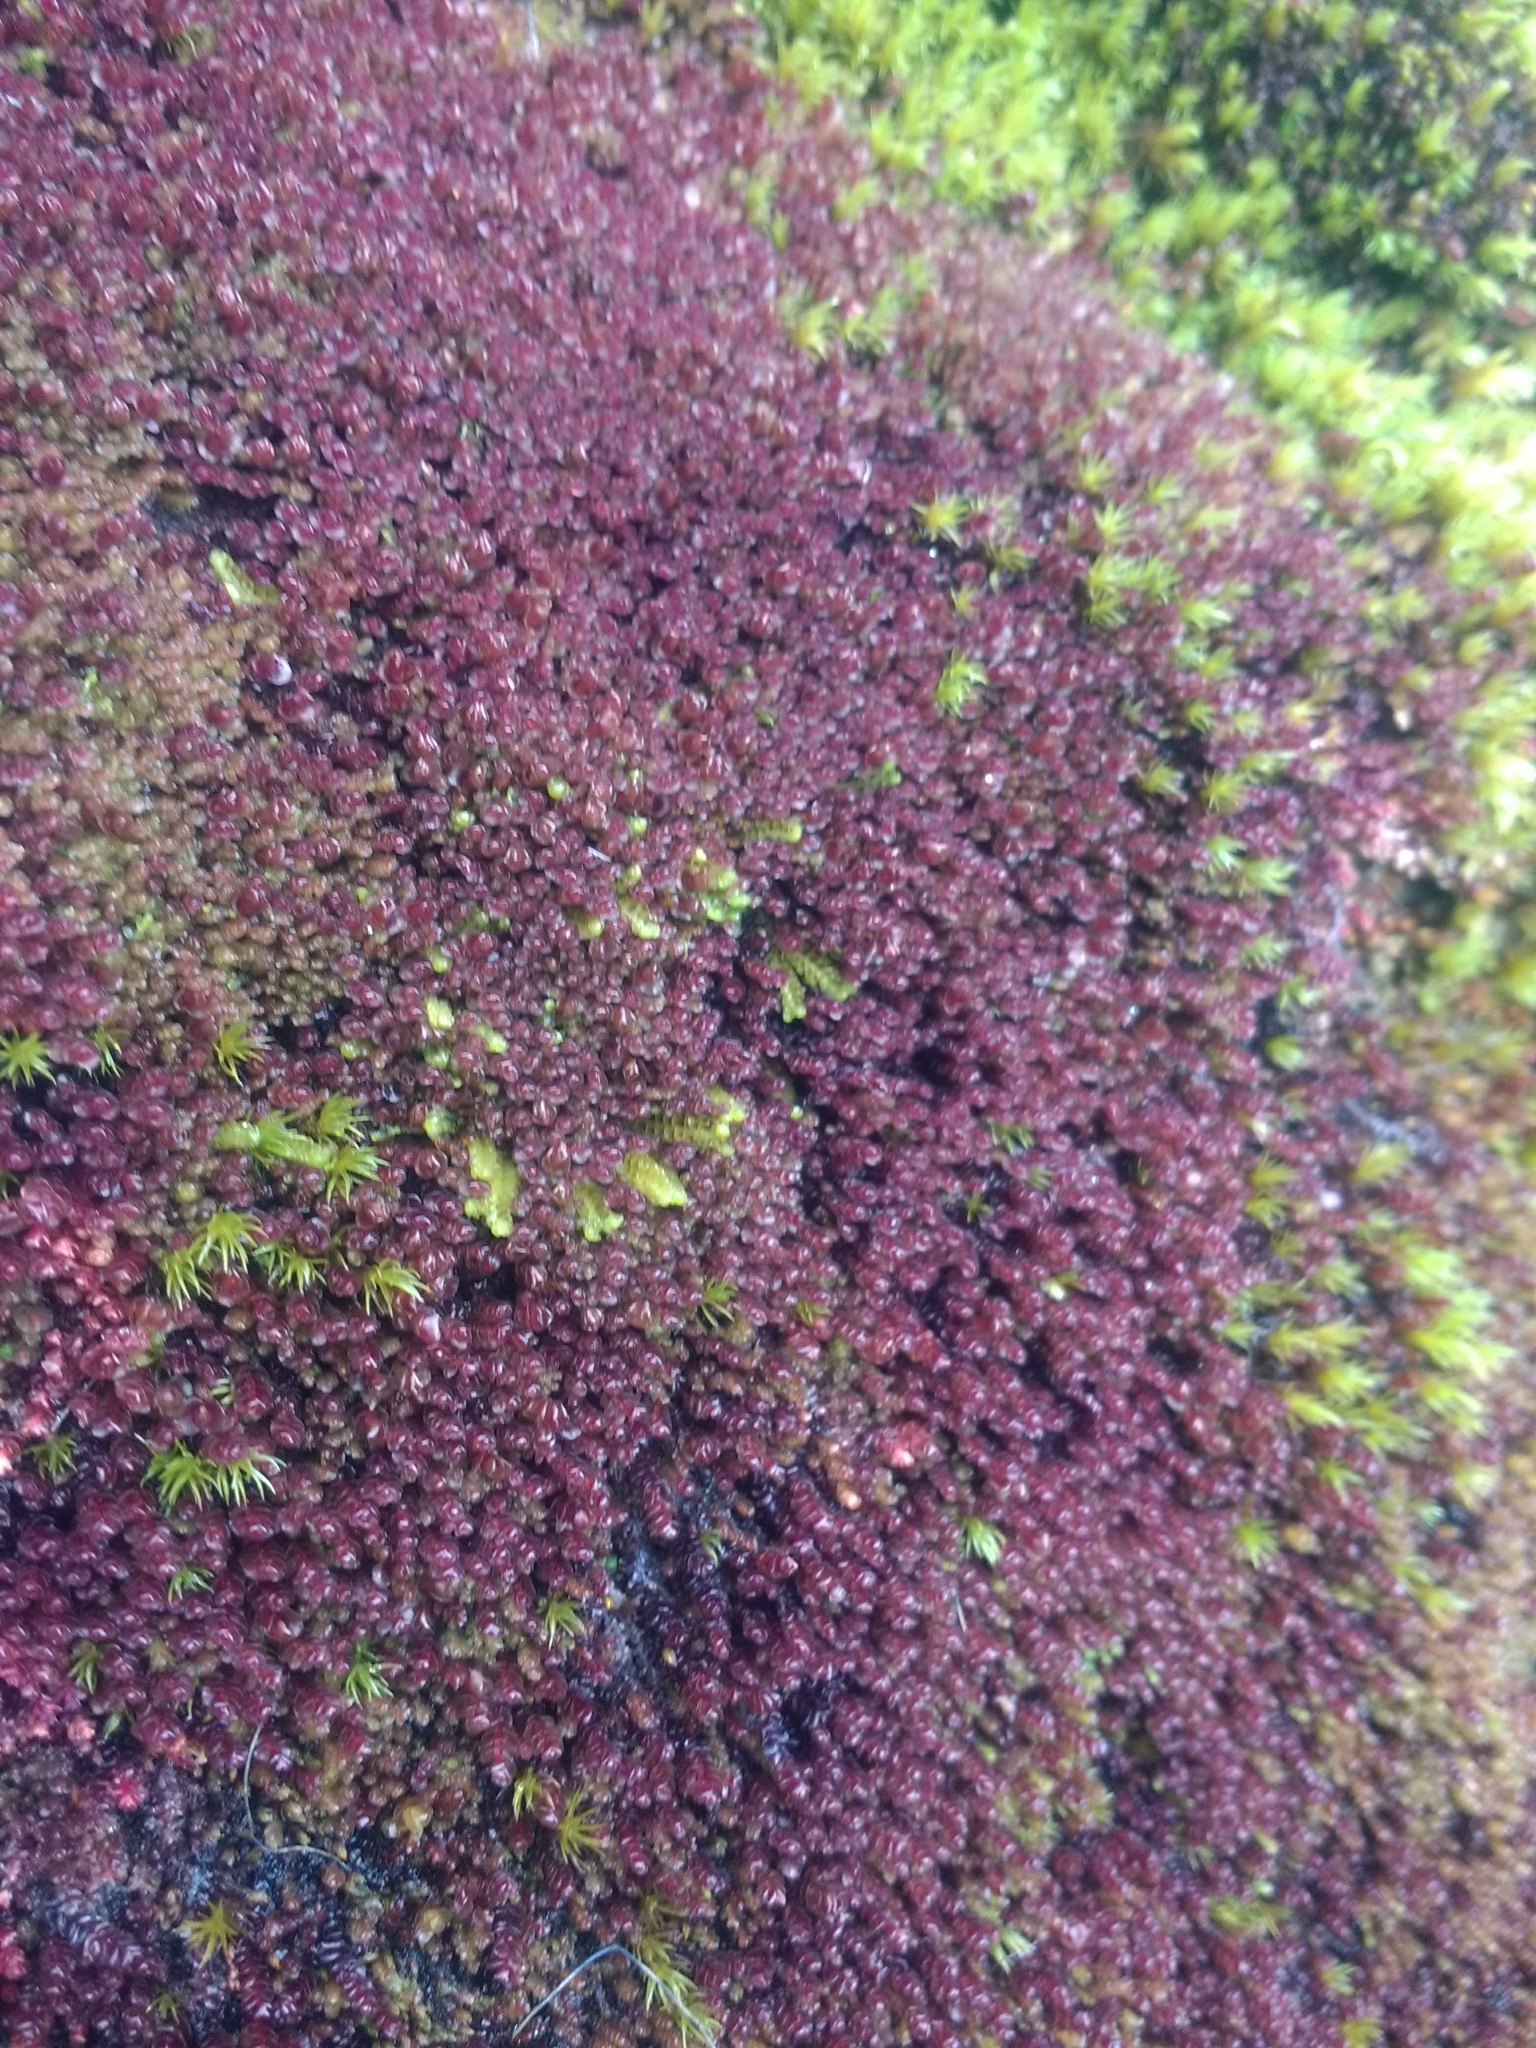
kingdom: Plantae
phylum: Marchantiophyta
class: Jungermanniopsida
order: Jungermanniales
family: Gymnomitriaceae
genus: Marsupella
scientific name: Marsupella emarginata
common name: Notched rustwort
